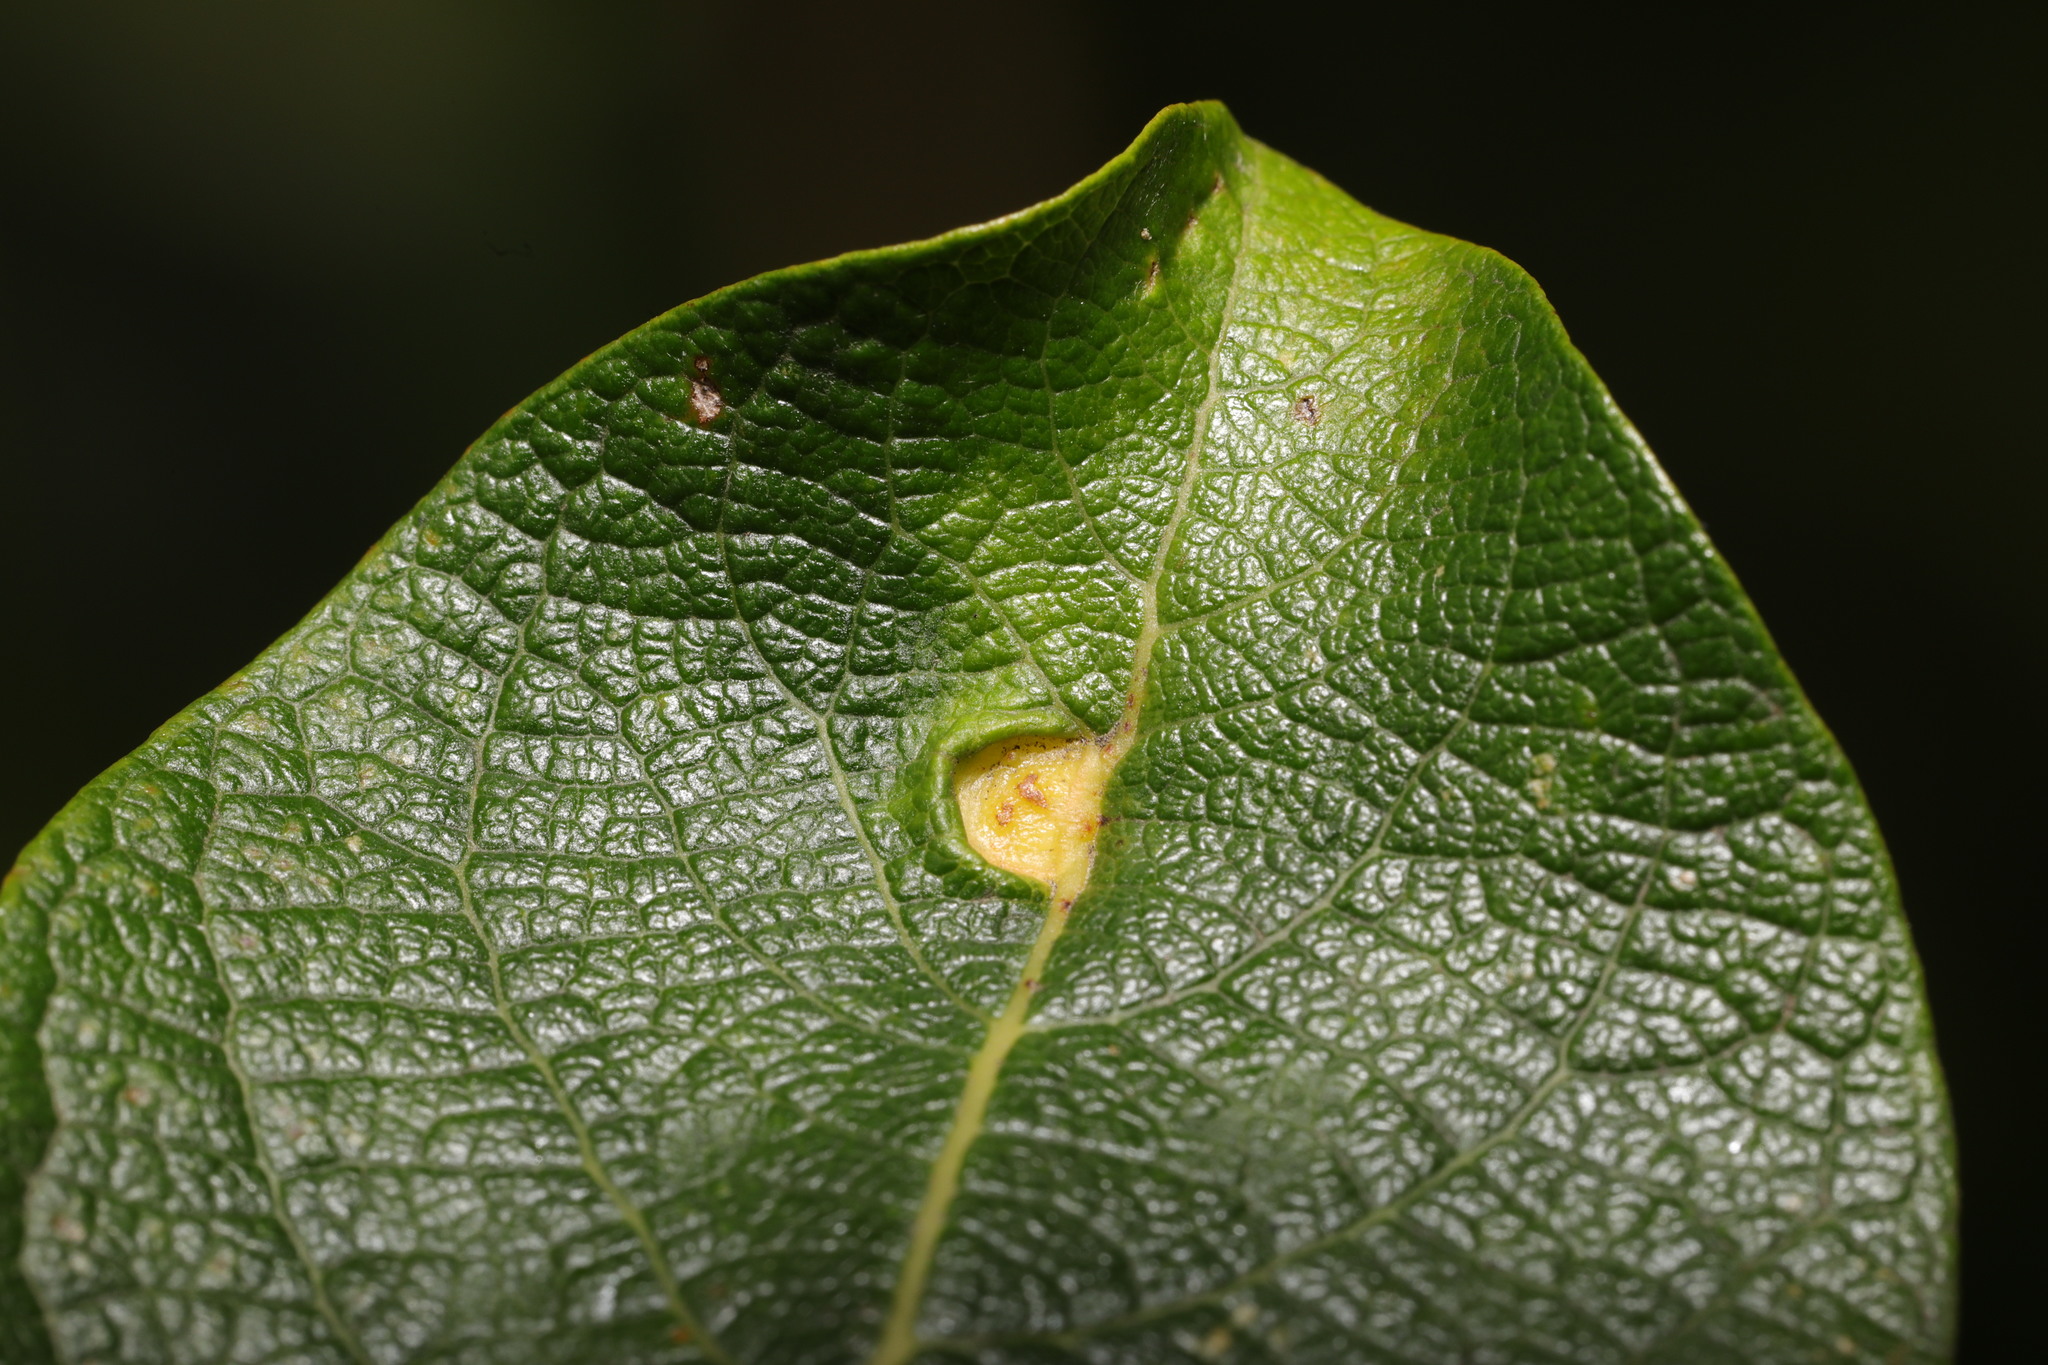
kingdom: Animalia
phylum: Arthropoda
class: Insecta
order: Hymenoptera
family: Tenthredinidae
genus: Pontania
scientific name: Pontania proxima
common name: Common sawfly
